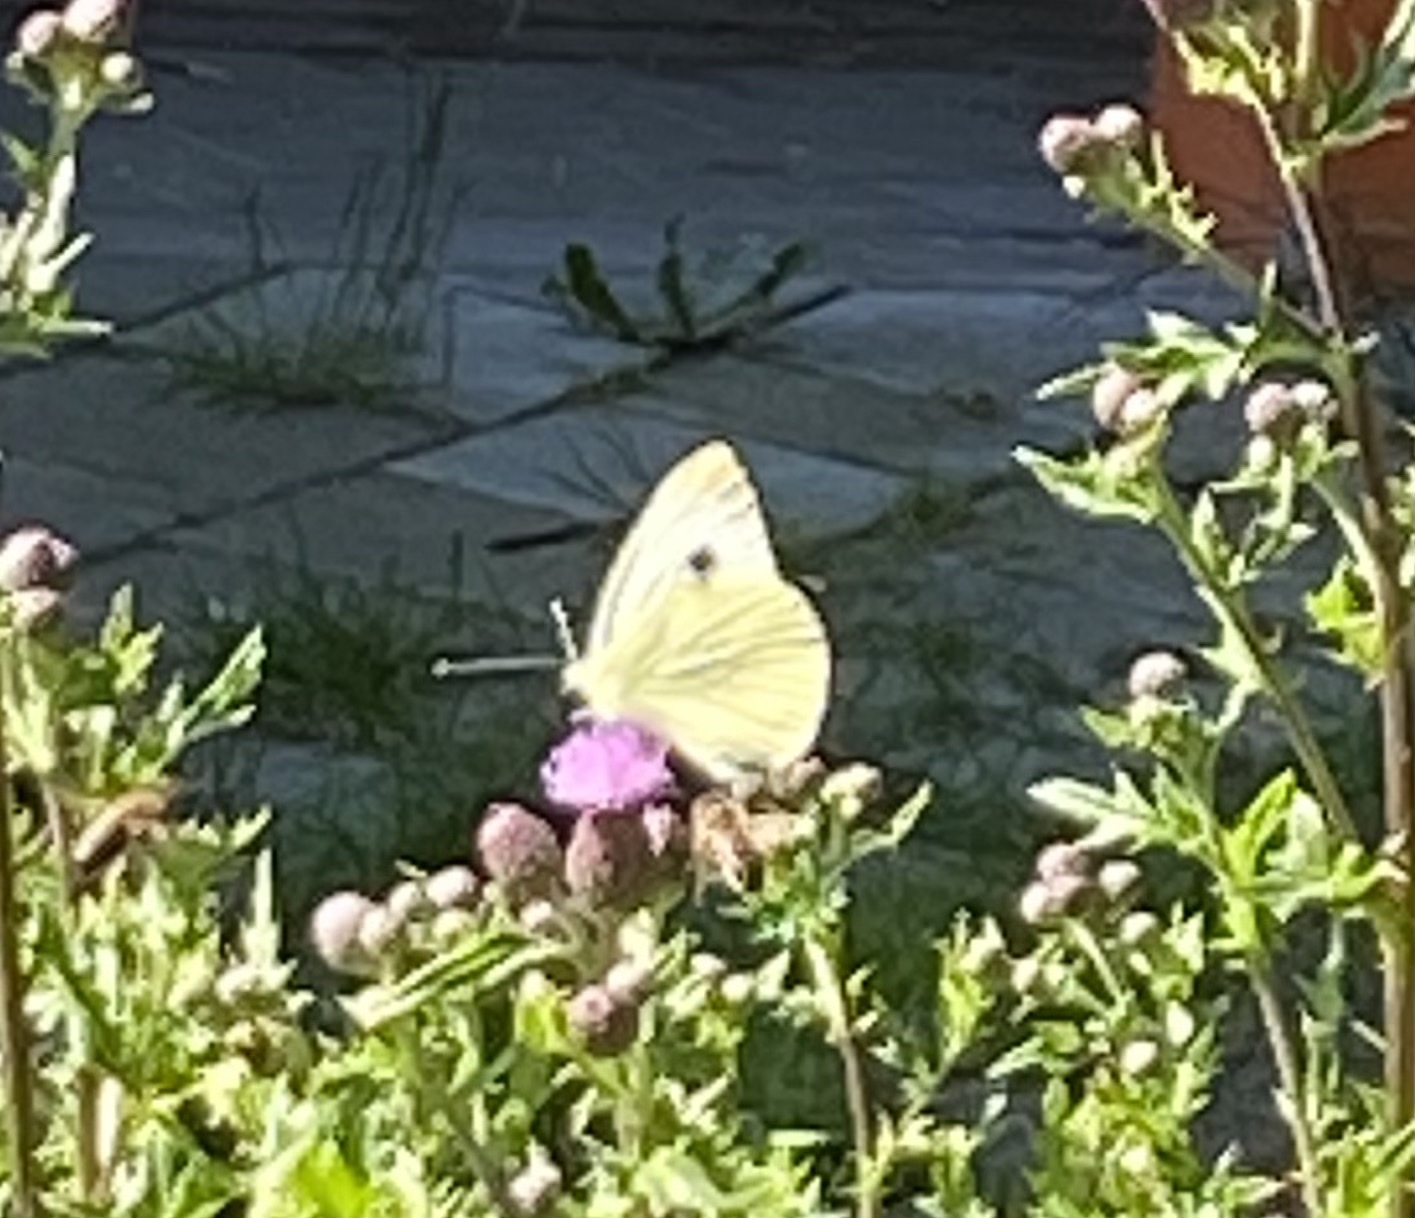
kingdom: Animalia
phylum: Arthropoda
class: Insecta
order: Lepidoptera
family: Pieridae
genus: Pieris
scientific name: Pieris napi
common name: Green-veined white
